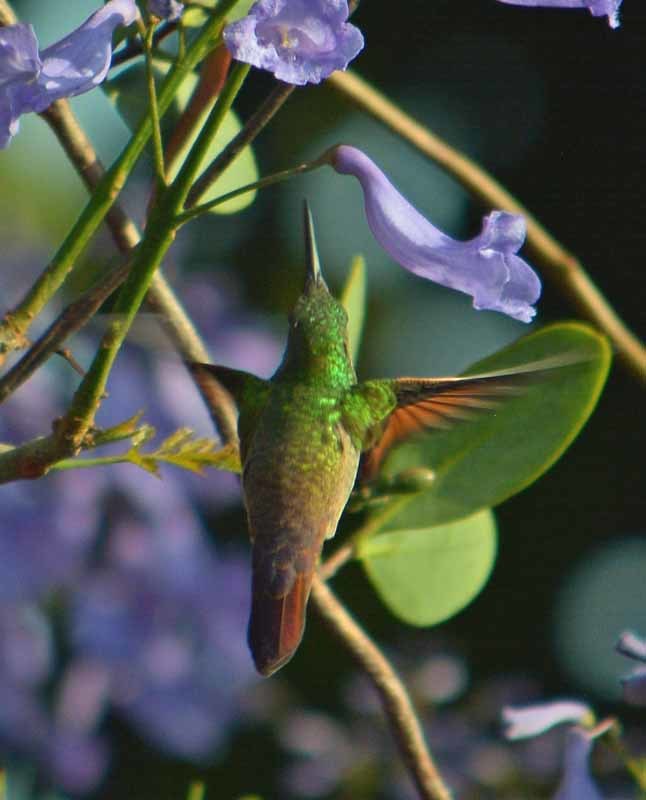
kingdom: Animalia
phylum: Chordata
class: Aves
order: Apodiformes
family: Trochilidae
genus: Saucerottia
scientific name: Saucerottia beryllina
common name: Berylline hummingbird
